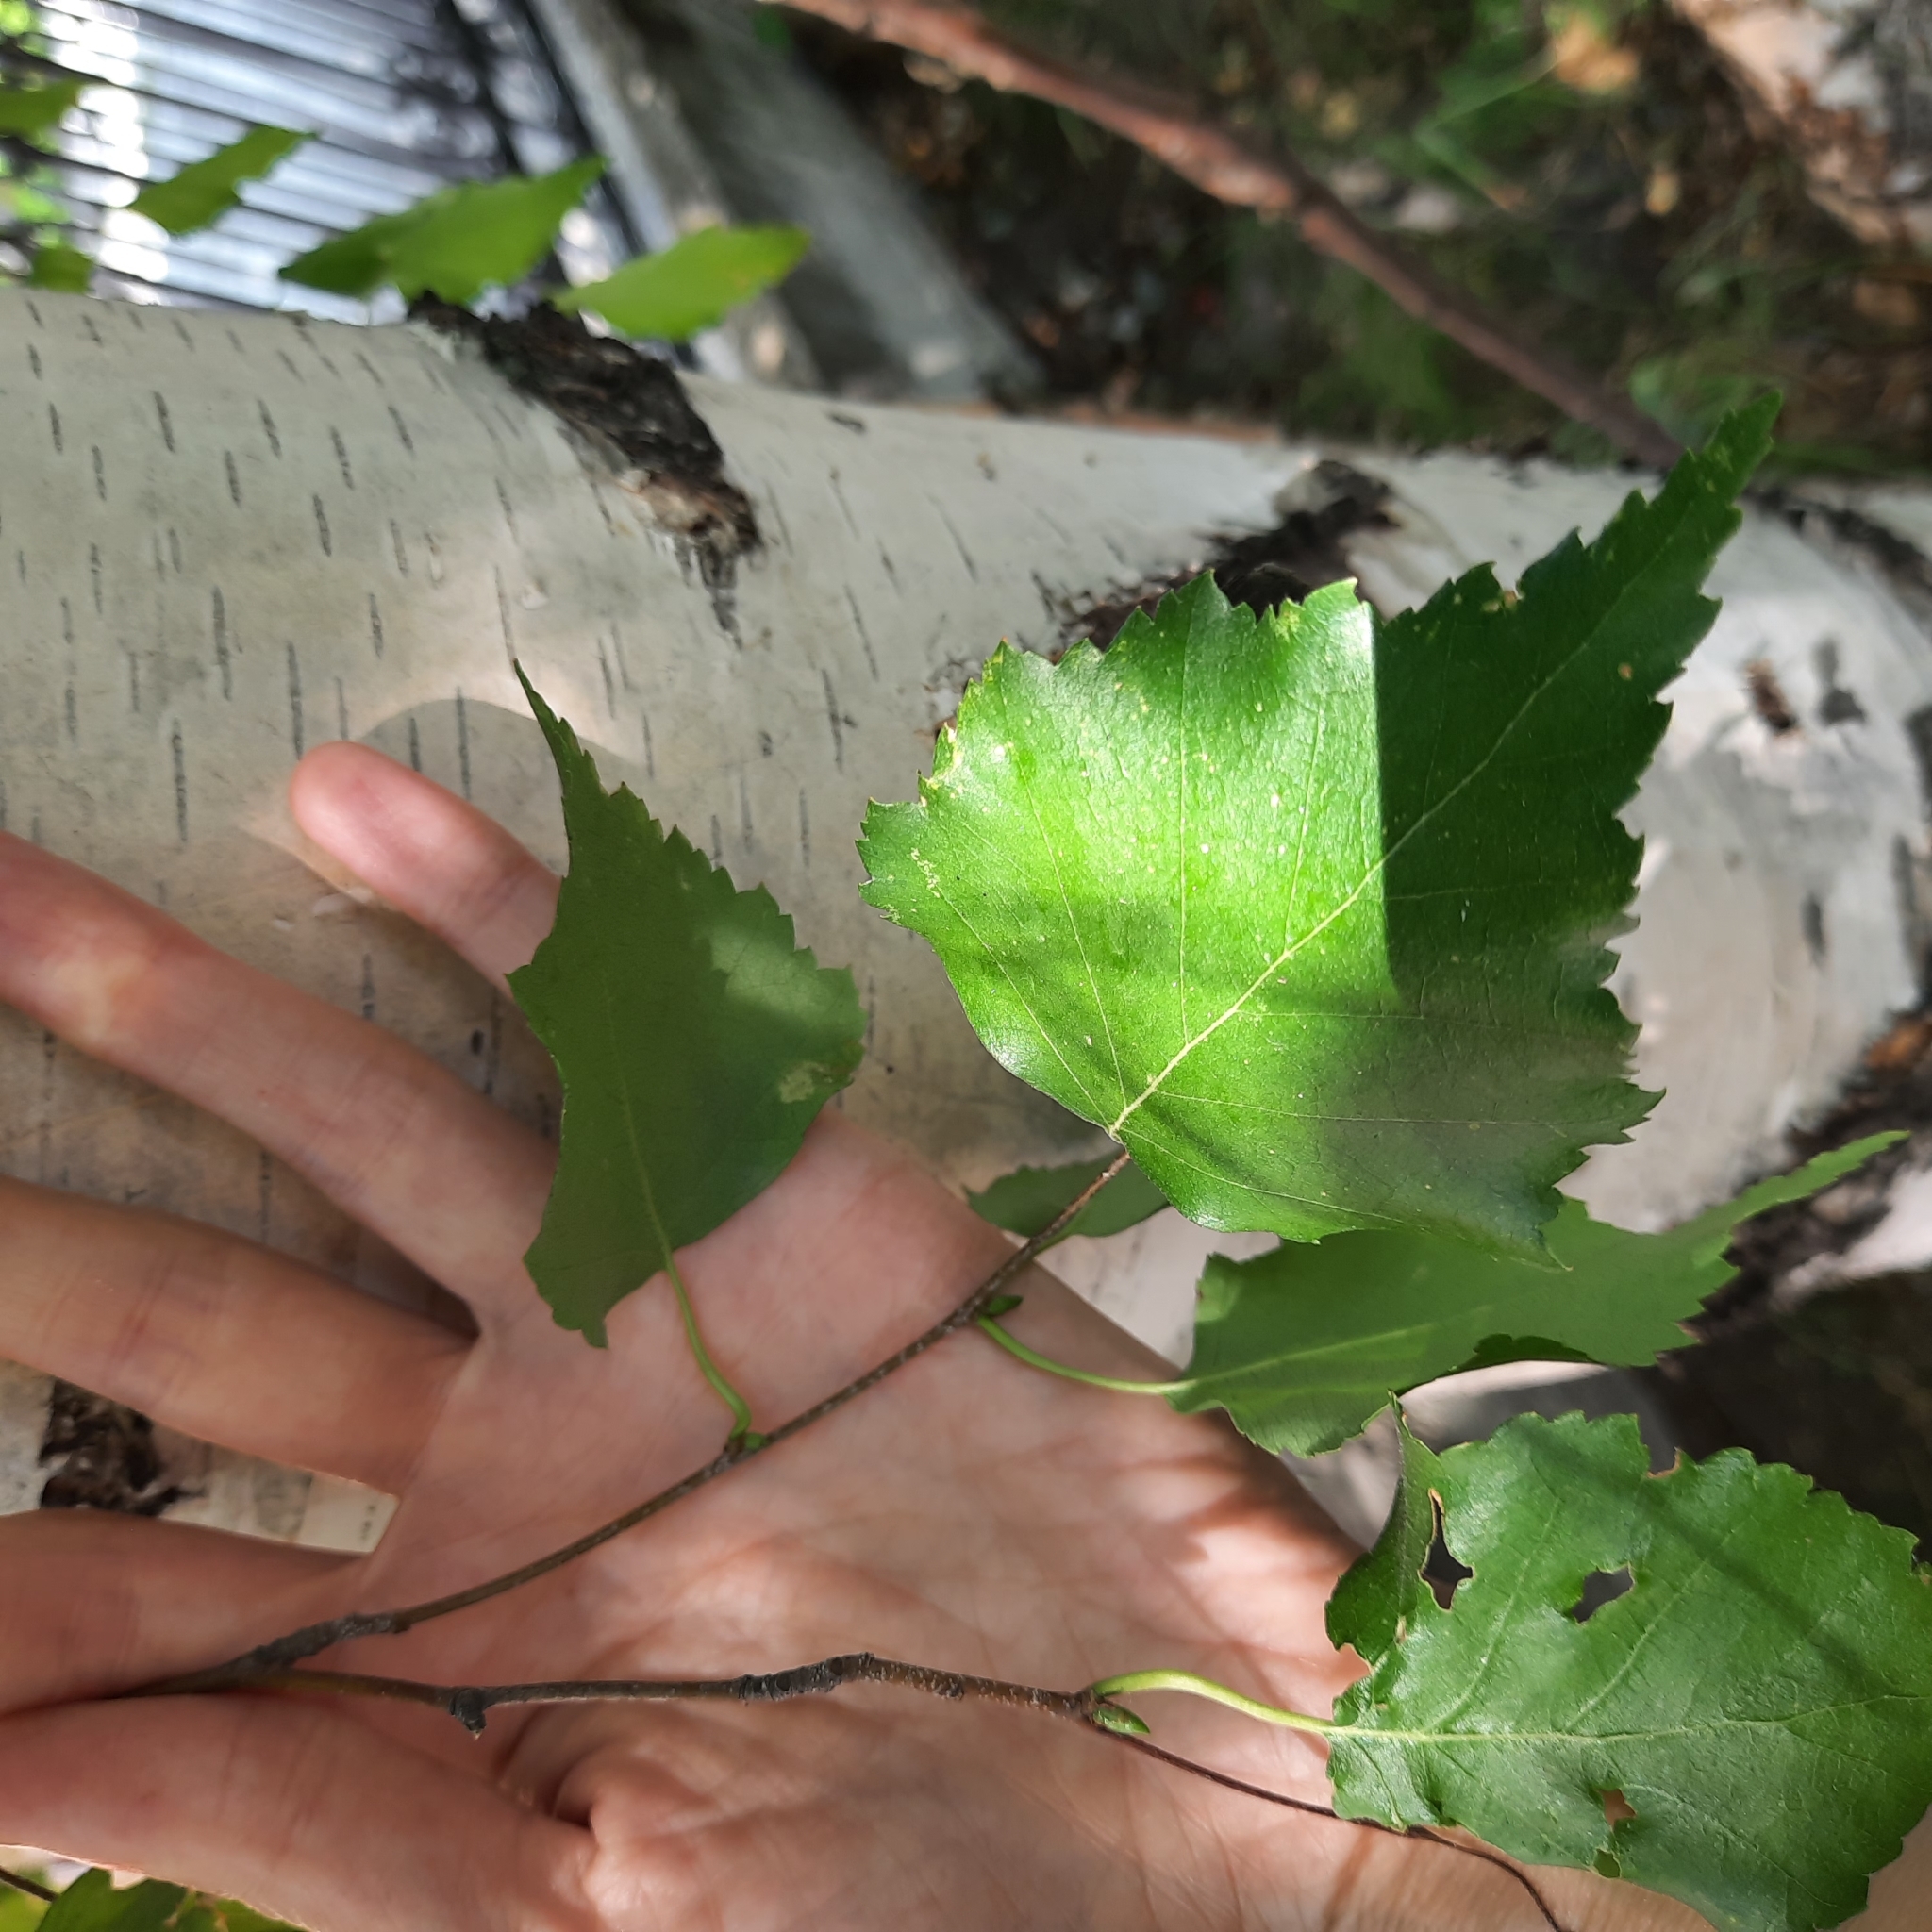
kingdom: Plantae
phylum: Tracheophyta
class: Magnoliopsida
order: Fagales
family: Betulaceae
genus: Betula
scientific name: Betula pendula
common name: Silver birch
